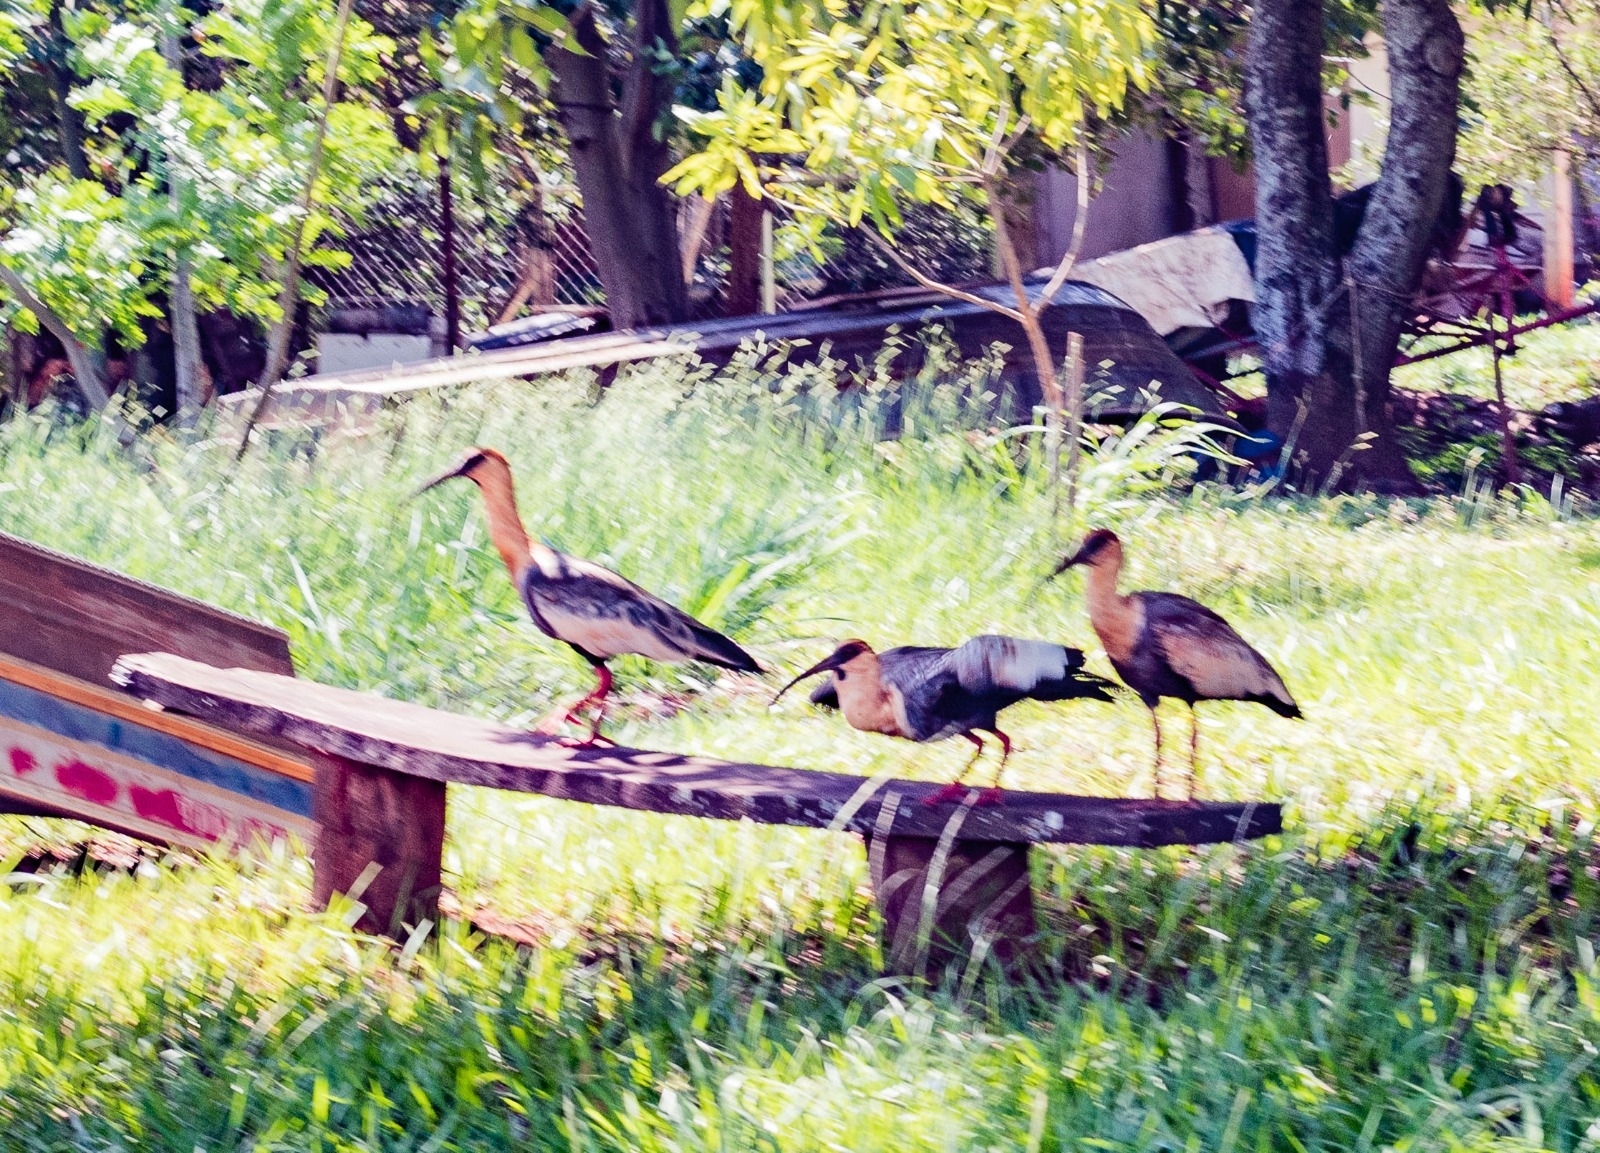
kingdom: Animalia
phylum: Chordata
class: Aves
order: Pelecaniformes
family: Threskiornithidae
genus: Theristicus
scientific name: Theristicus caudatus
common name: Buff-necked ibis
